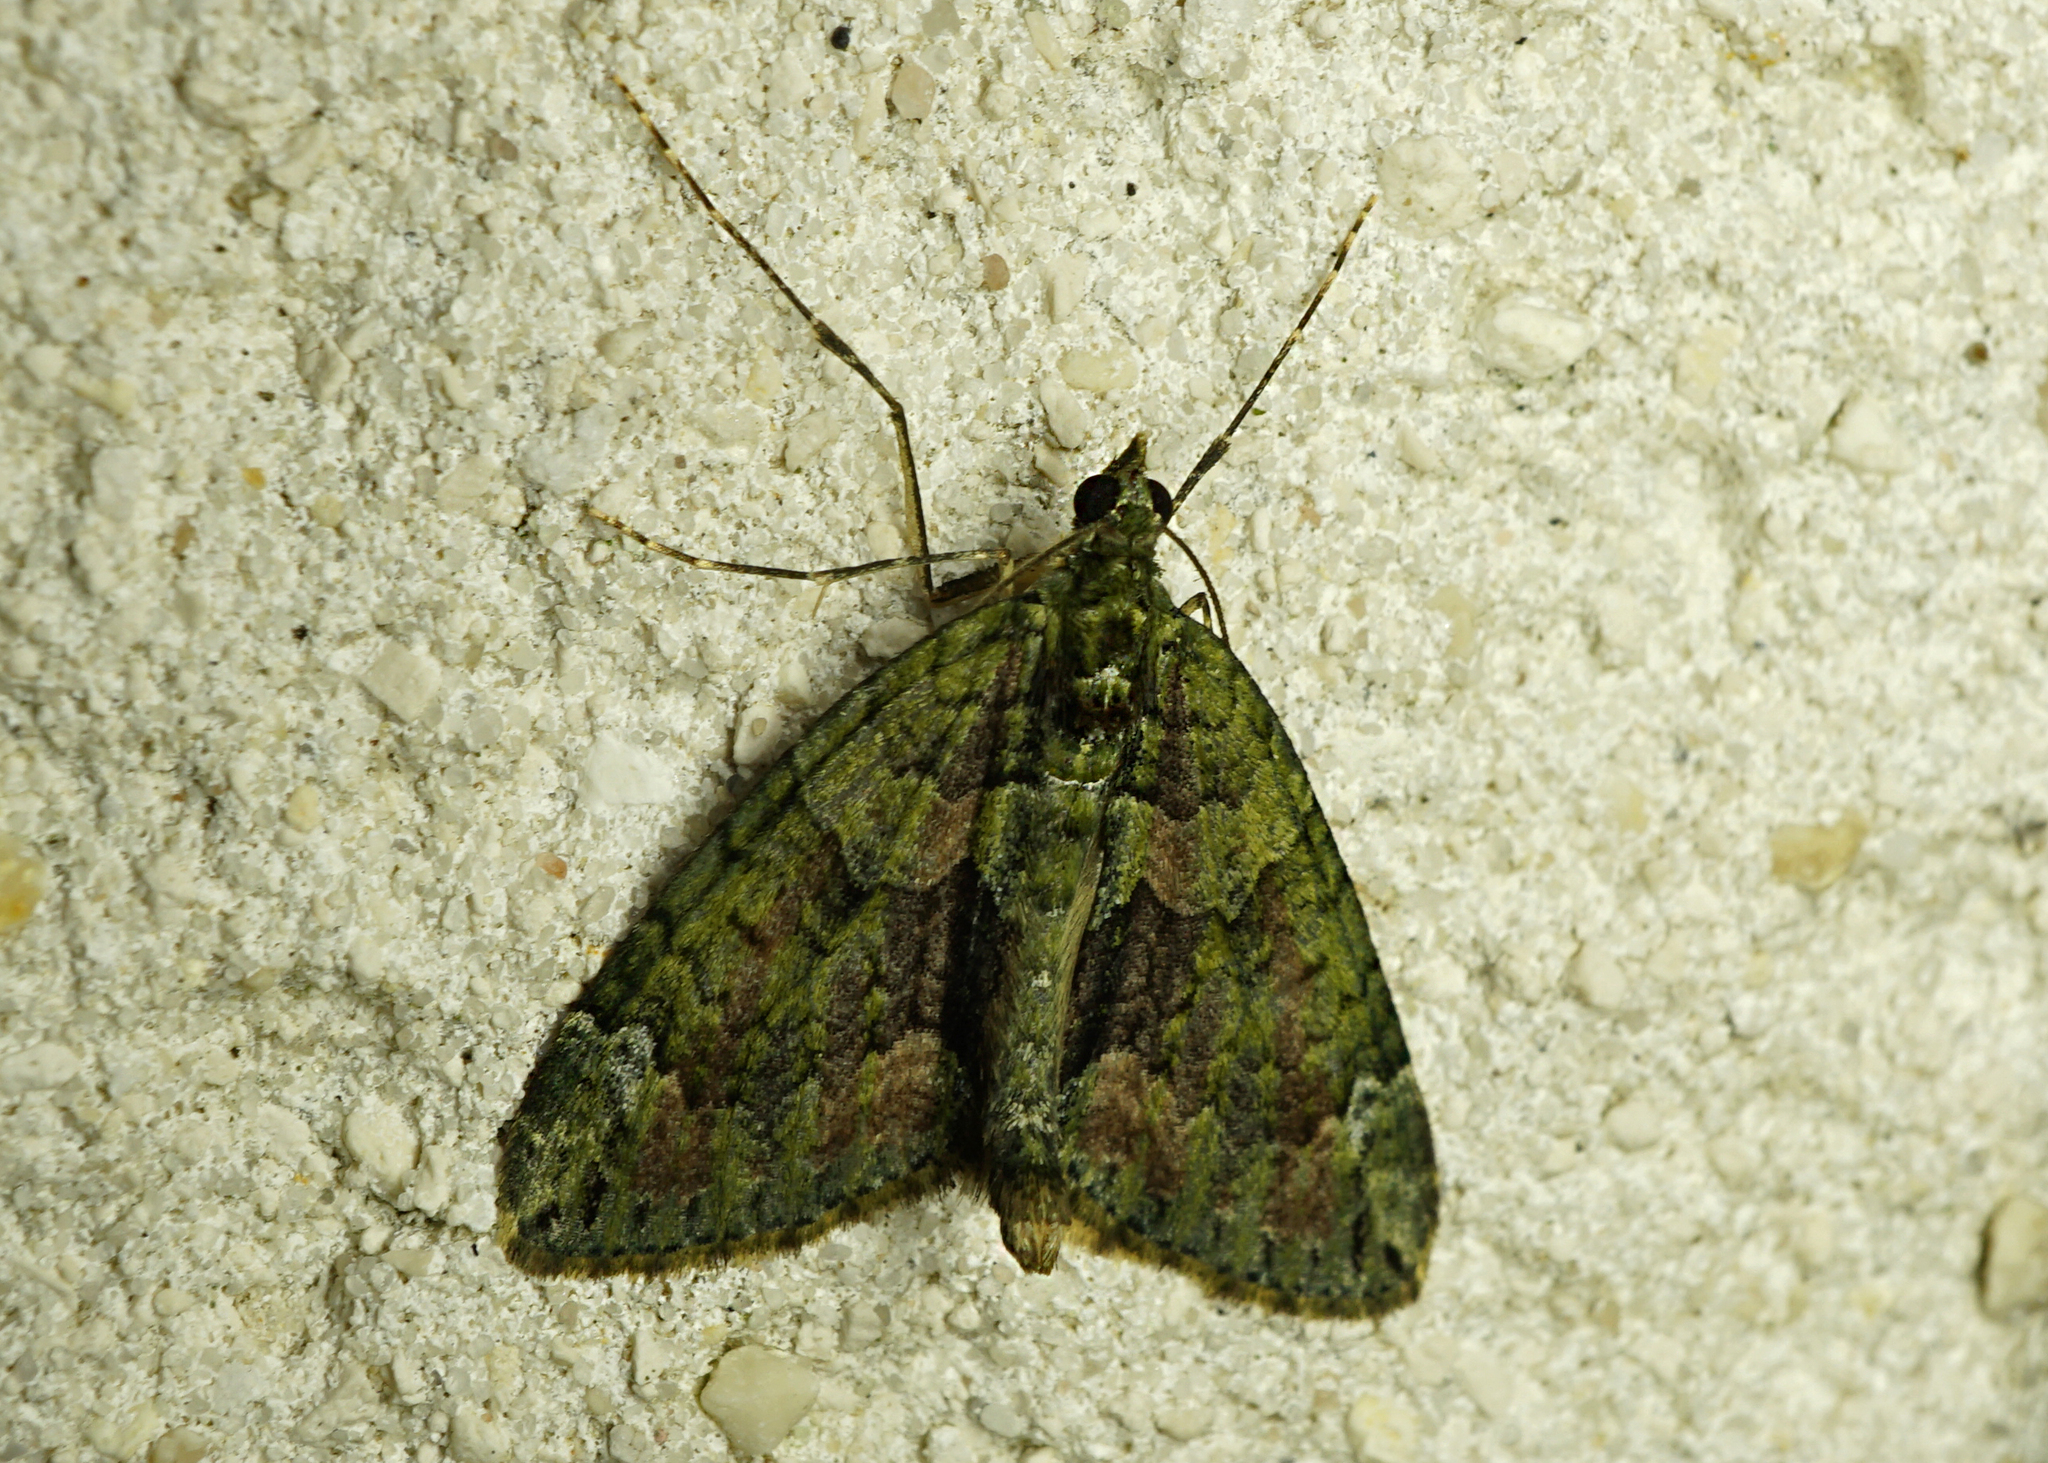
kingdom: Animalia
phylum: Arthropoda
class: Insecta
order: Lepidoptera
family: Geometridae
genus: Chloroclysta
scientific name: Chloroclysta siterata
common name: Red-green carpet
